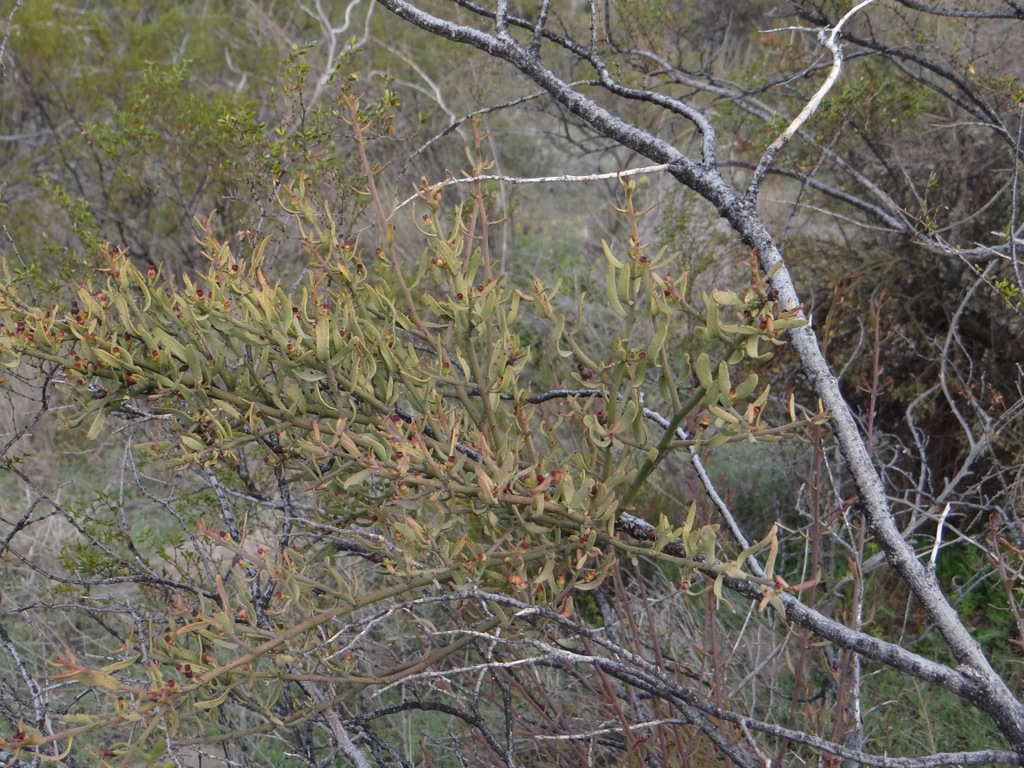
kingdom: Plantae
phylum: Tracheophyta
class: Magnoliopsida
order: Santalales
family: Loranthaceae
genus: Ligaria
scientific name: Ligaria cuneifolia
